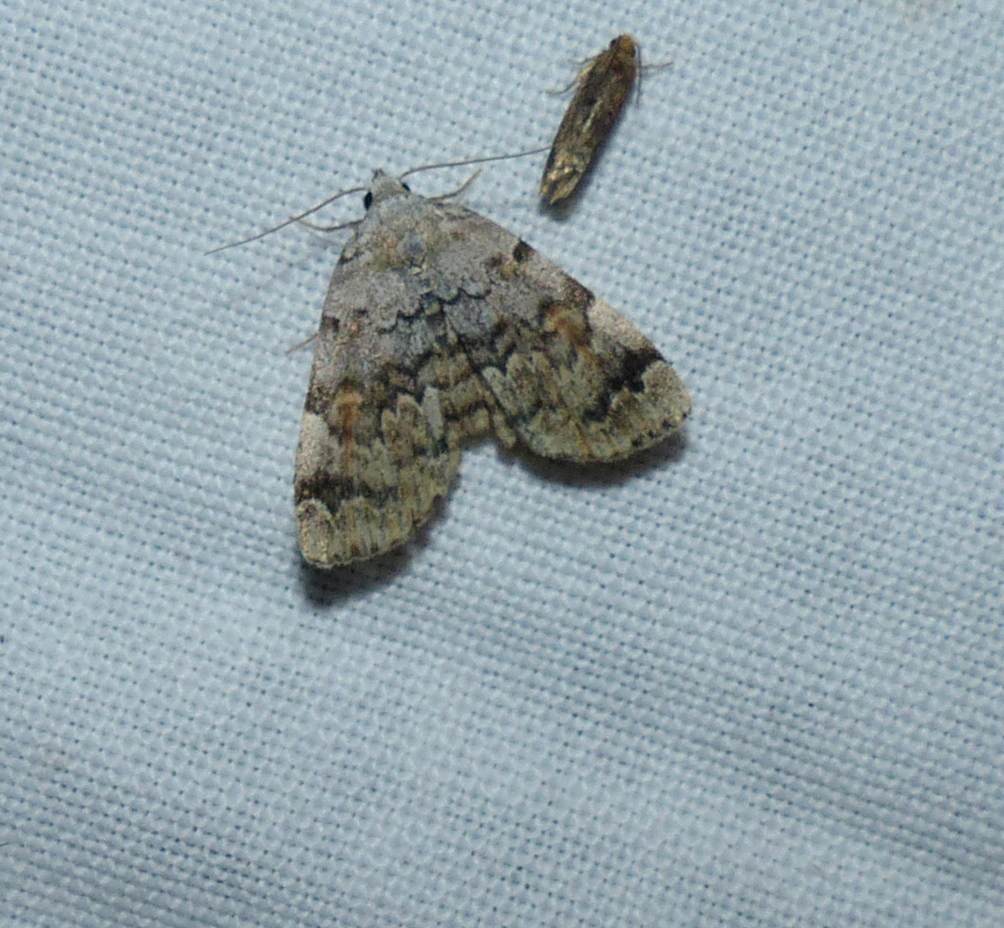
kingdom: Animalia
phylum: Arthropoda
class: Insecta
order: Lepidoptera
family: Erebidae
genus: Idia
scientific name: Idia americalis
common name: American idia moth
